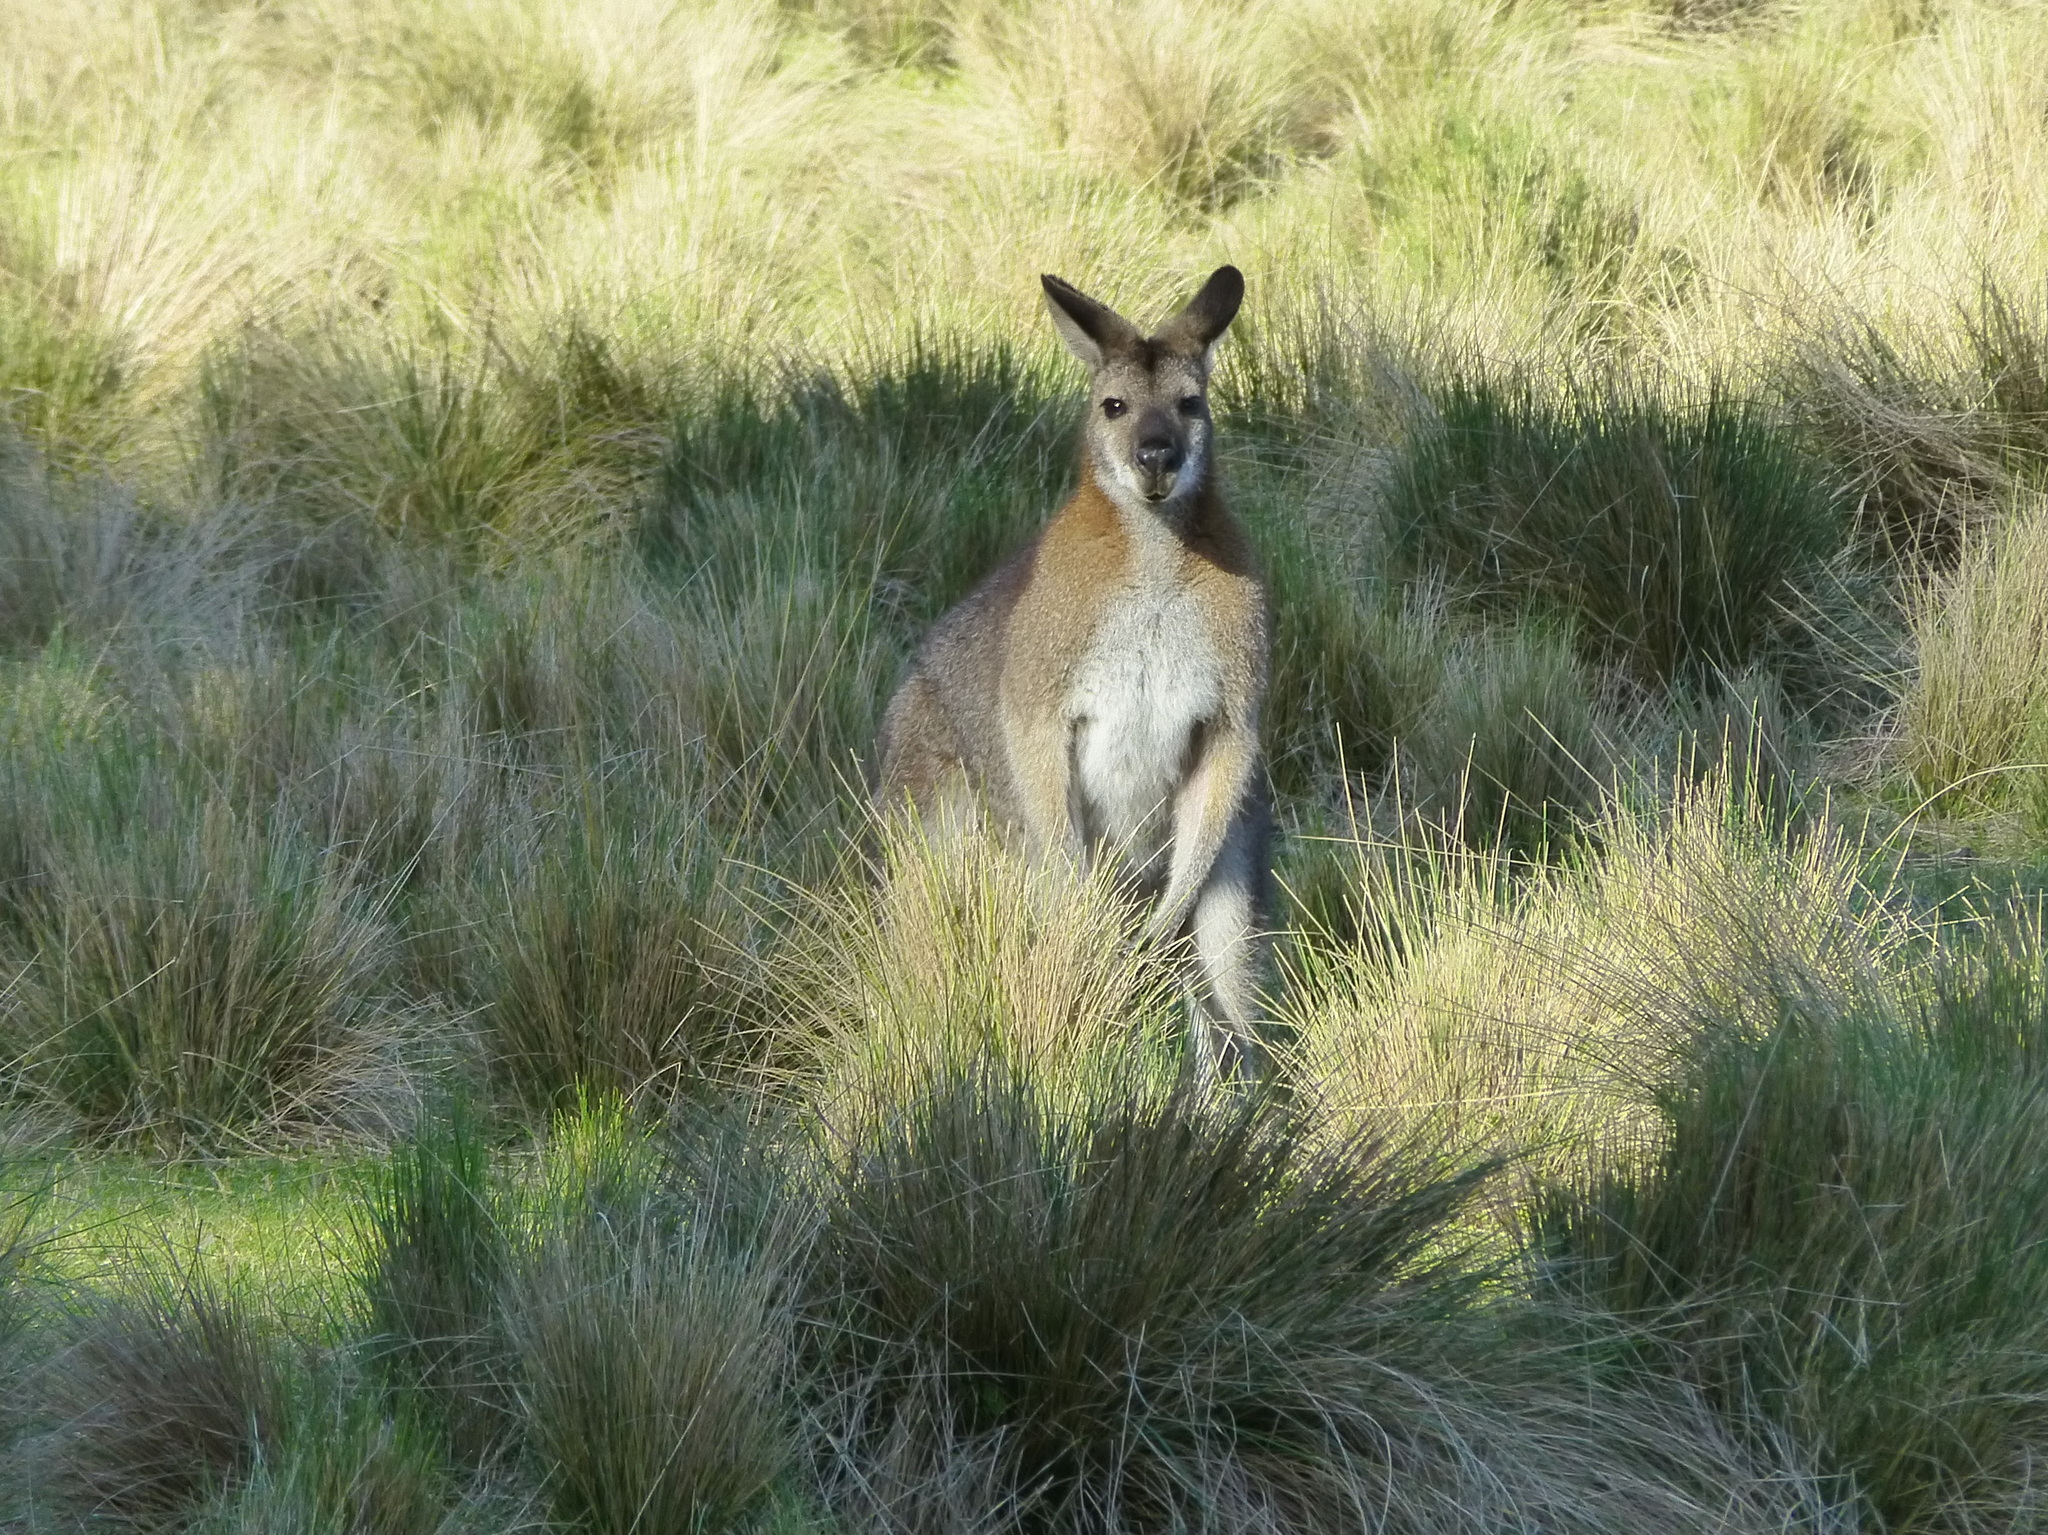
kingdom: Animalia
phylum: Chordata
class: Mammalia
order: Diprotodontia
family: Macropodidae
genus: Notamacropus
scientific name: Notamacropus rufogriseus
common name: Red-necked wallaby
